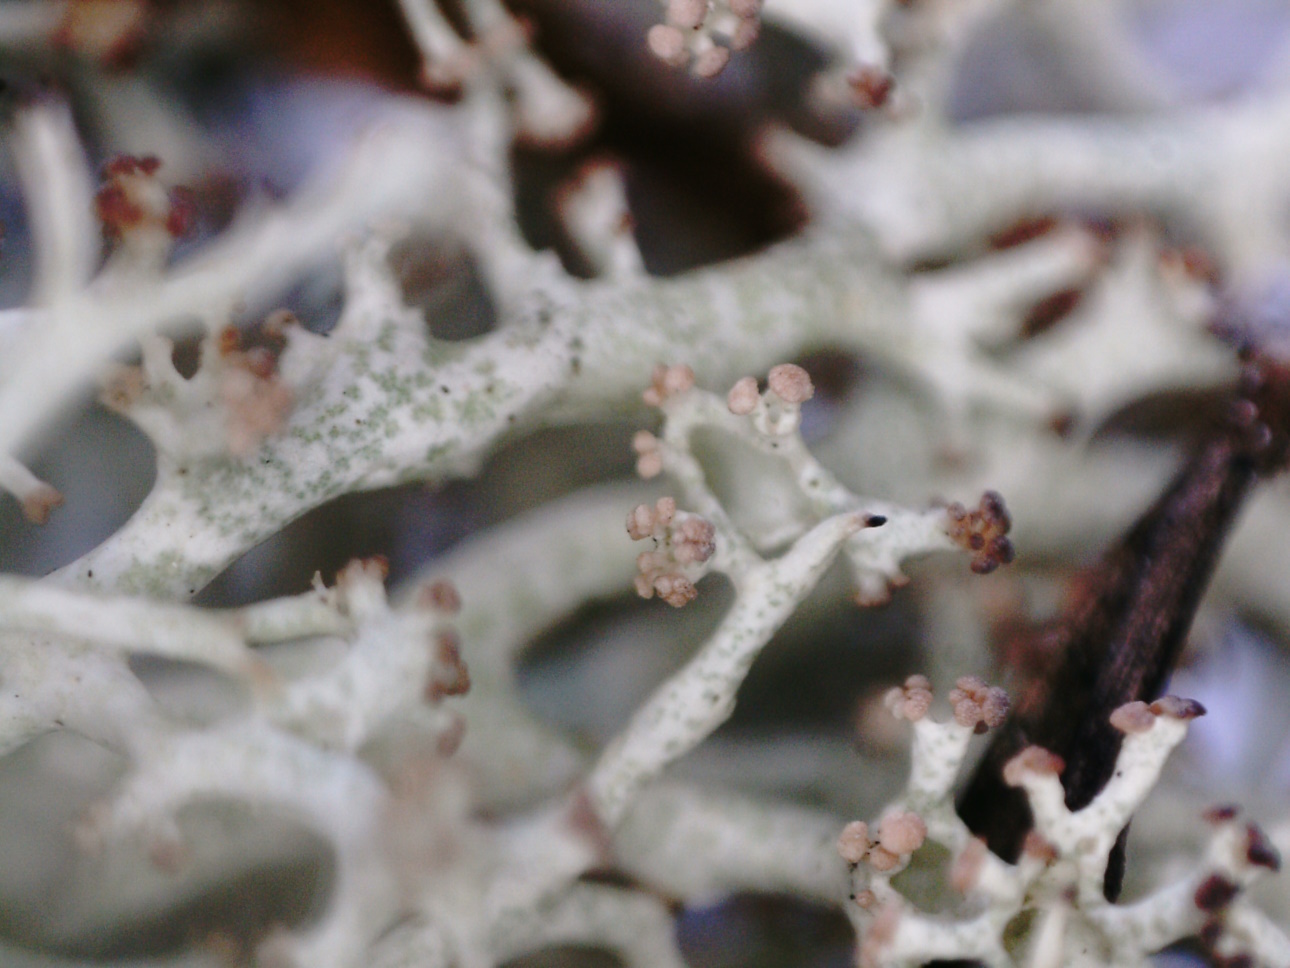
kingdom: Fungi
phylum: Ascomycota
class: Lecanoromycetes
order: Lecanorales
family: Cladoniaceae
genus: Cladonia
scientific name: Cladonia uncialis
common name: Thorn lichen
